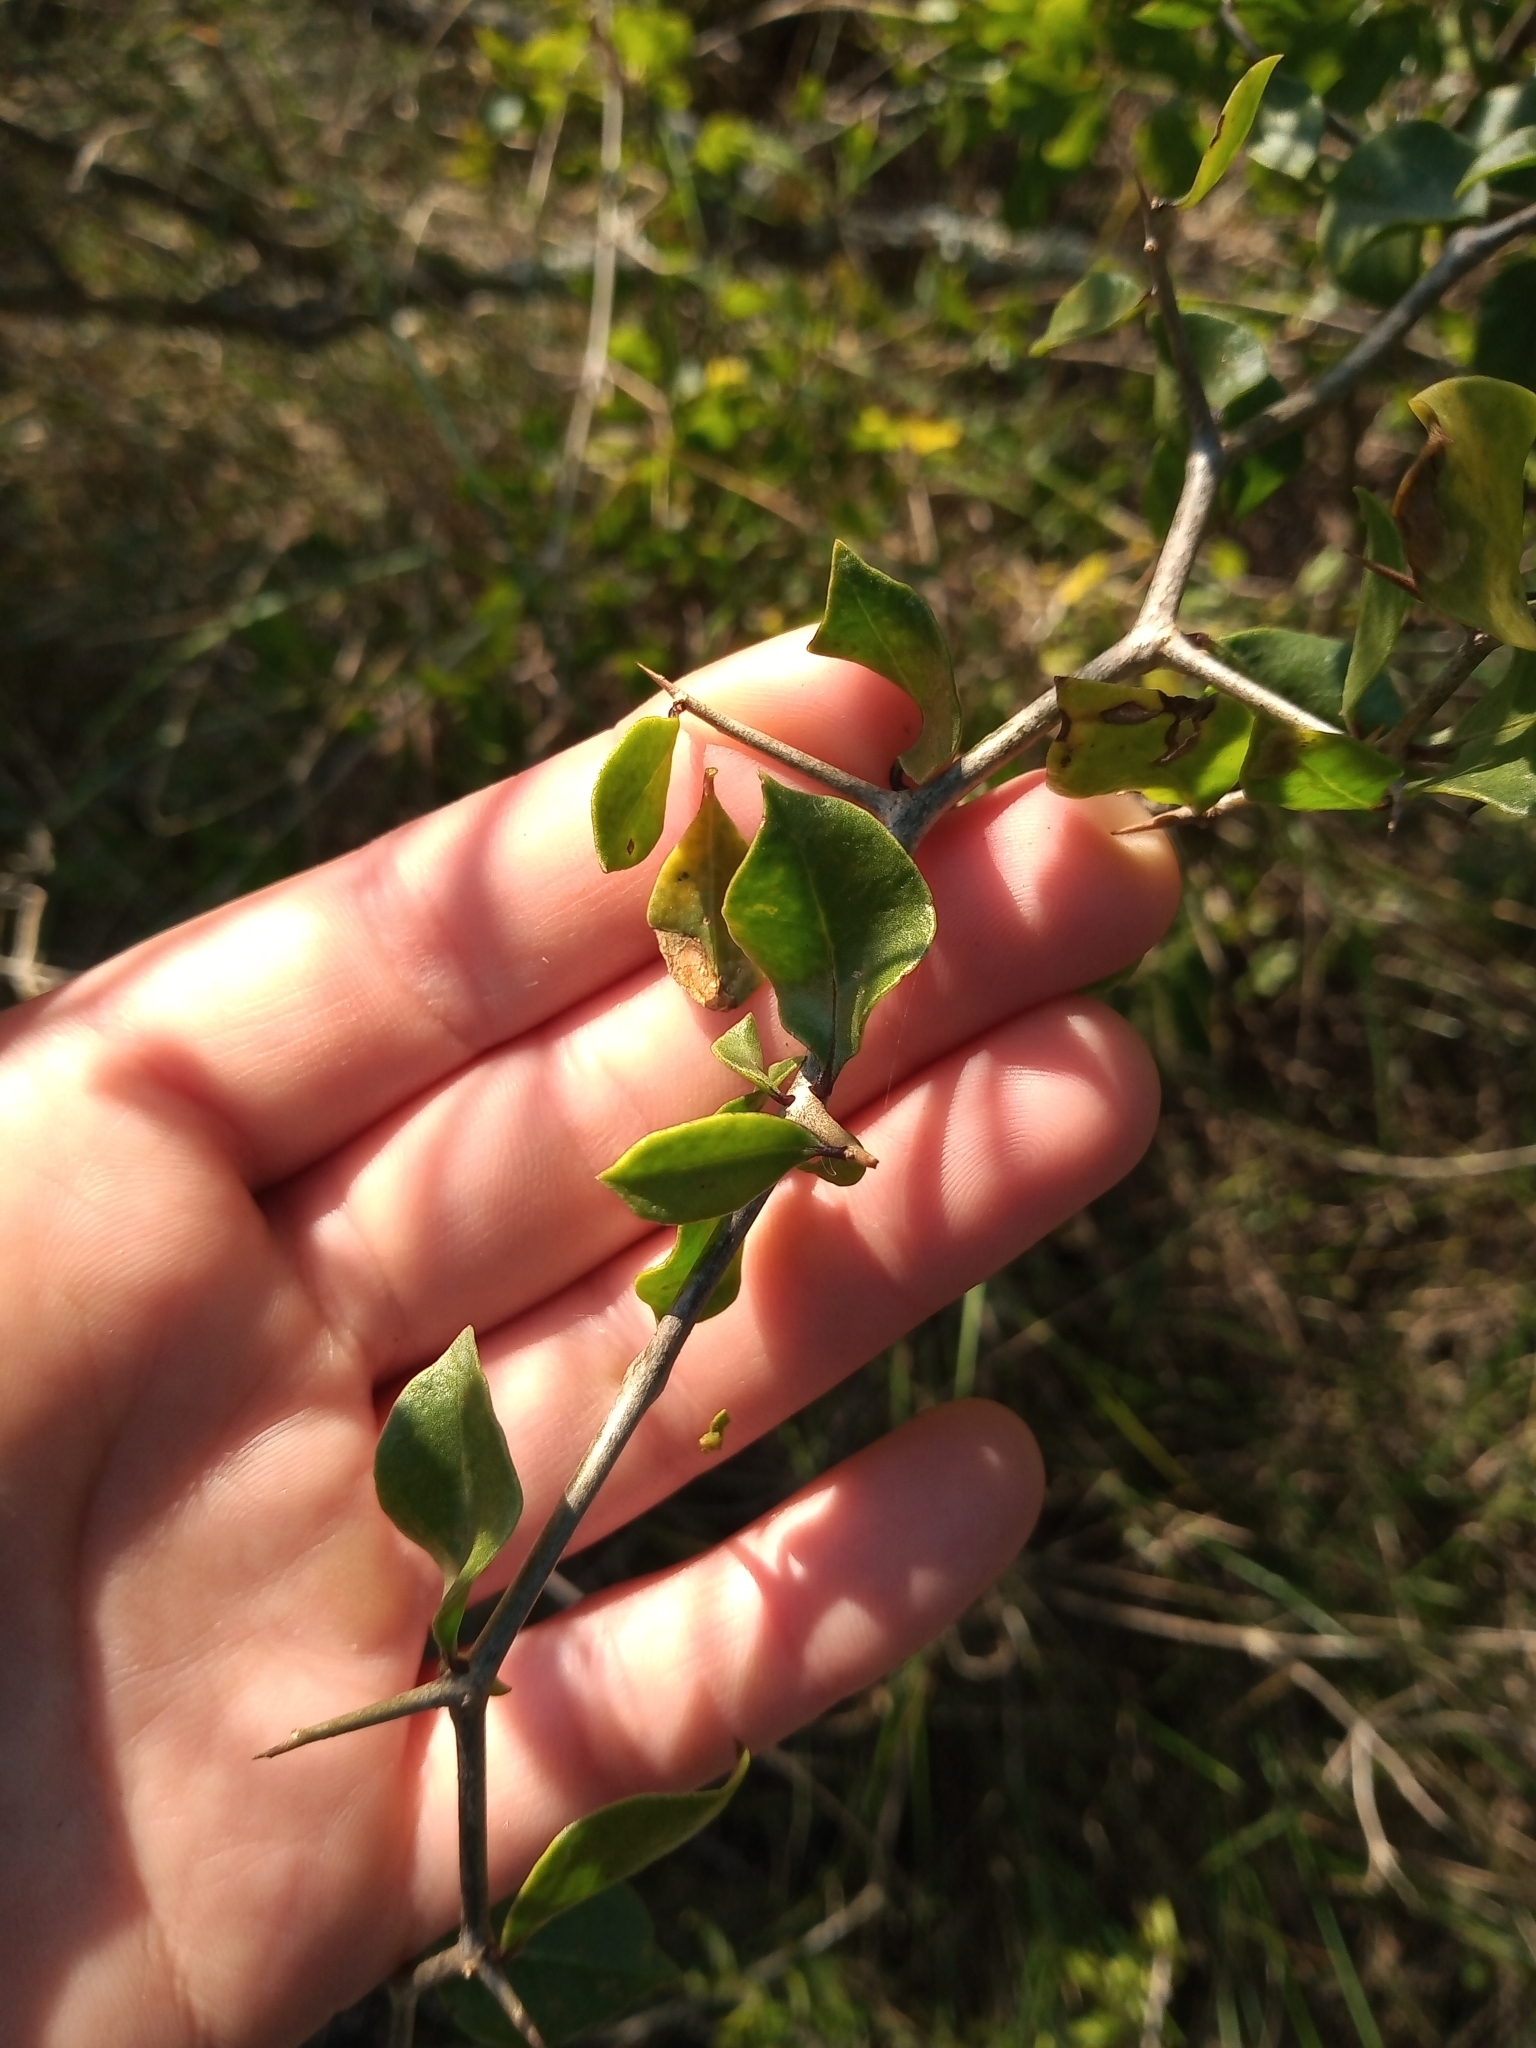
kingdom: Plantae
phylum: Tracheophyta
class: Magnoliopsida
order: Solanales
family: Solanaceae
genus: Lycium
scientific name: Lycium boerhaaviifolium
